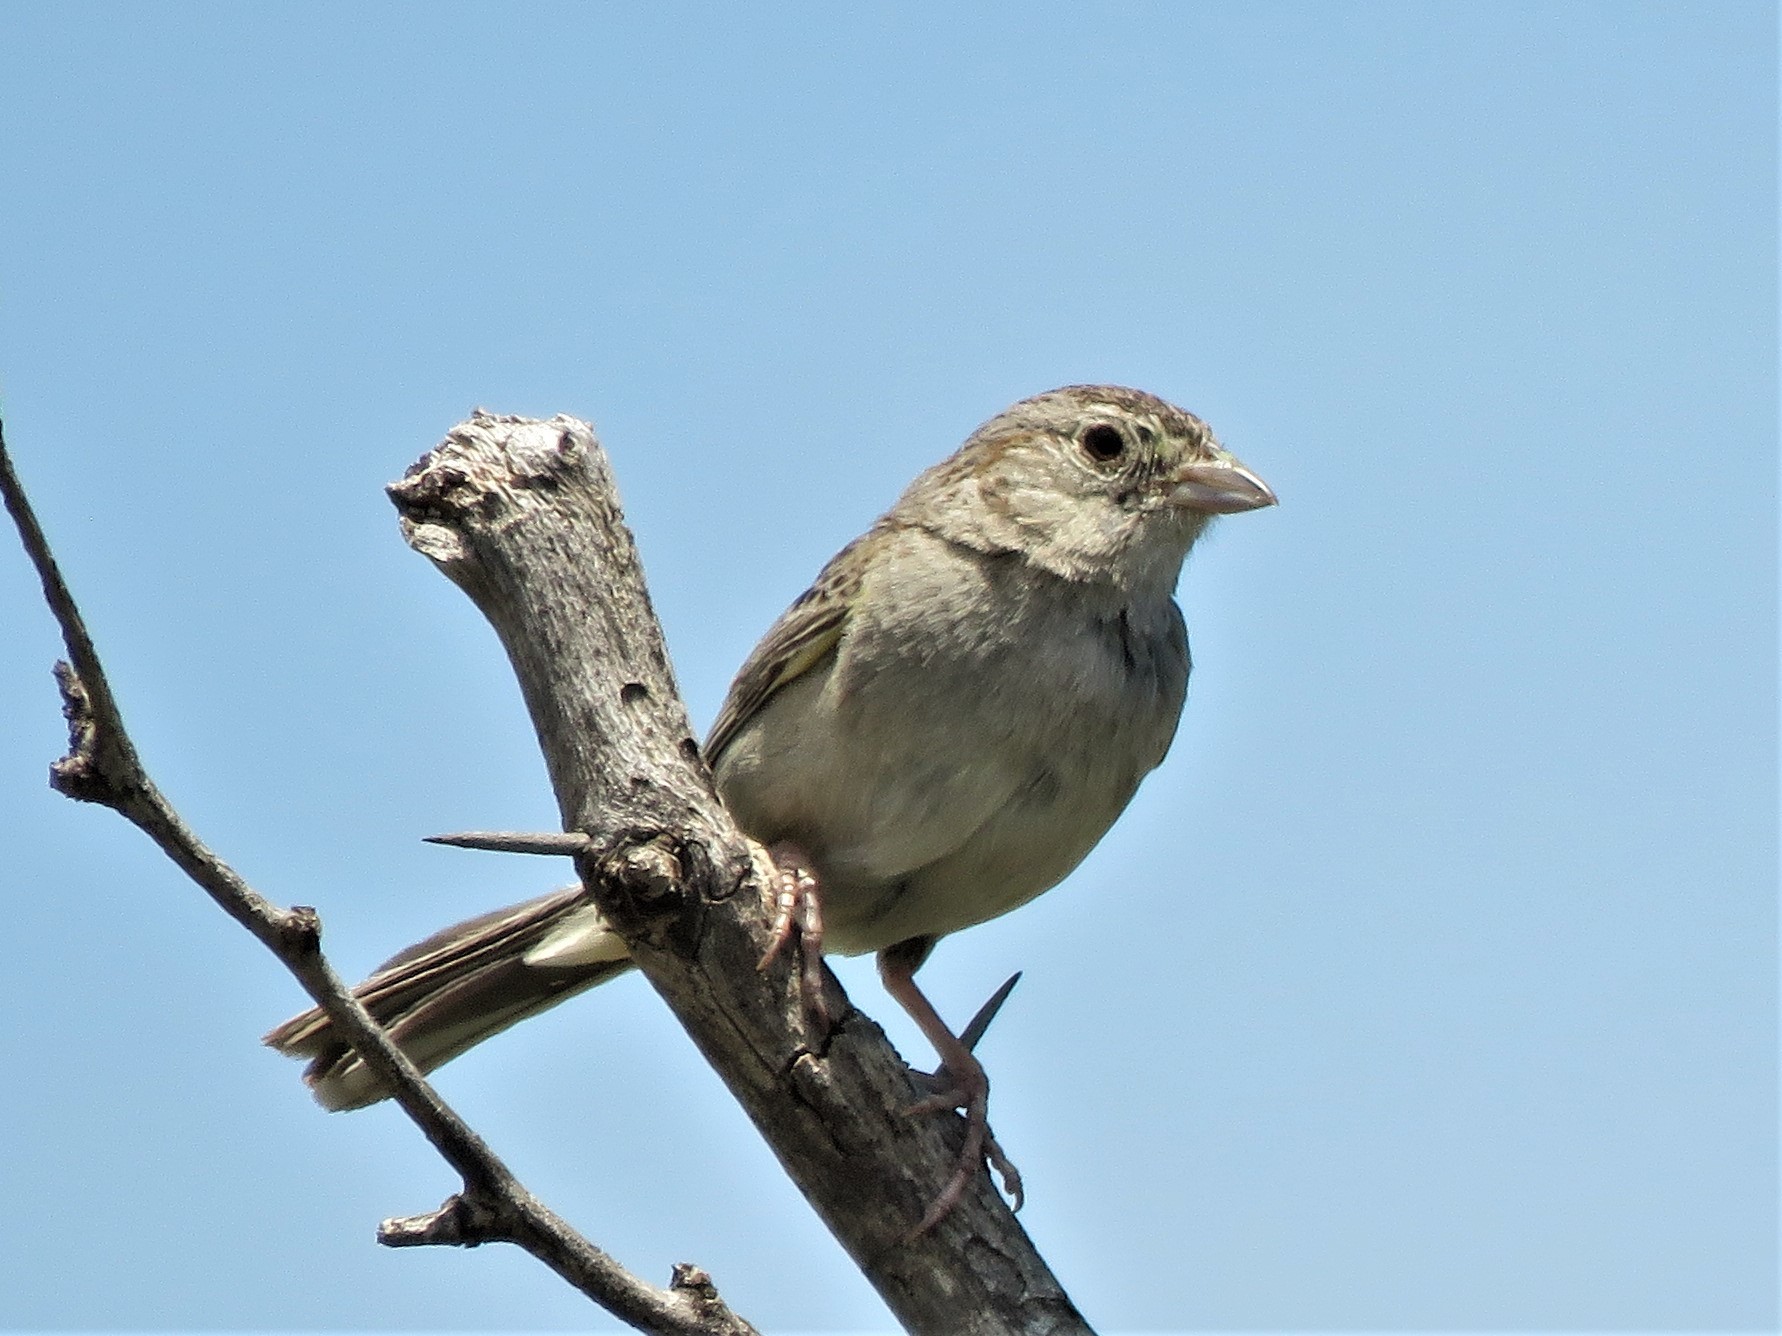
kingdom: Animalia
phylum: Chordata
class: Aves
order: Passeriformes
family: Passerellidae
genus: Peucaea
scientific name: Peucaea cassinii
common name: Cassin's sparrow
